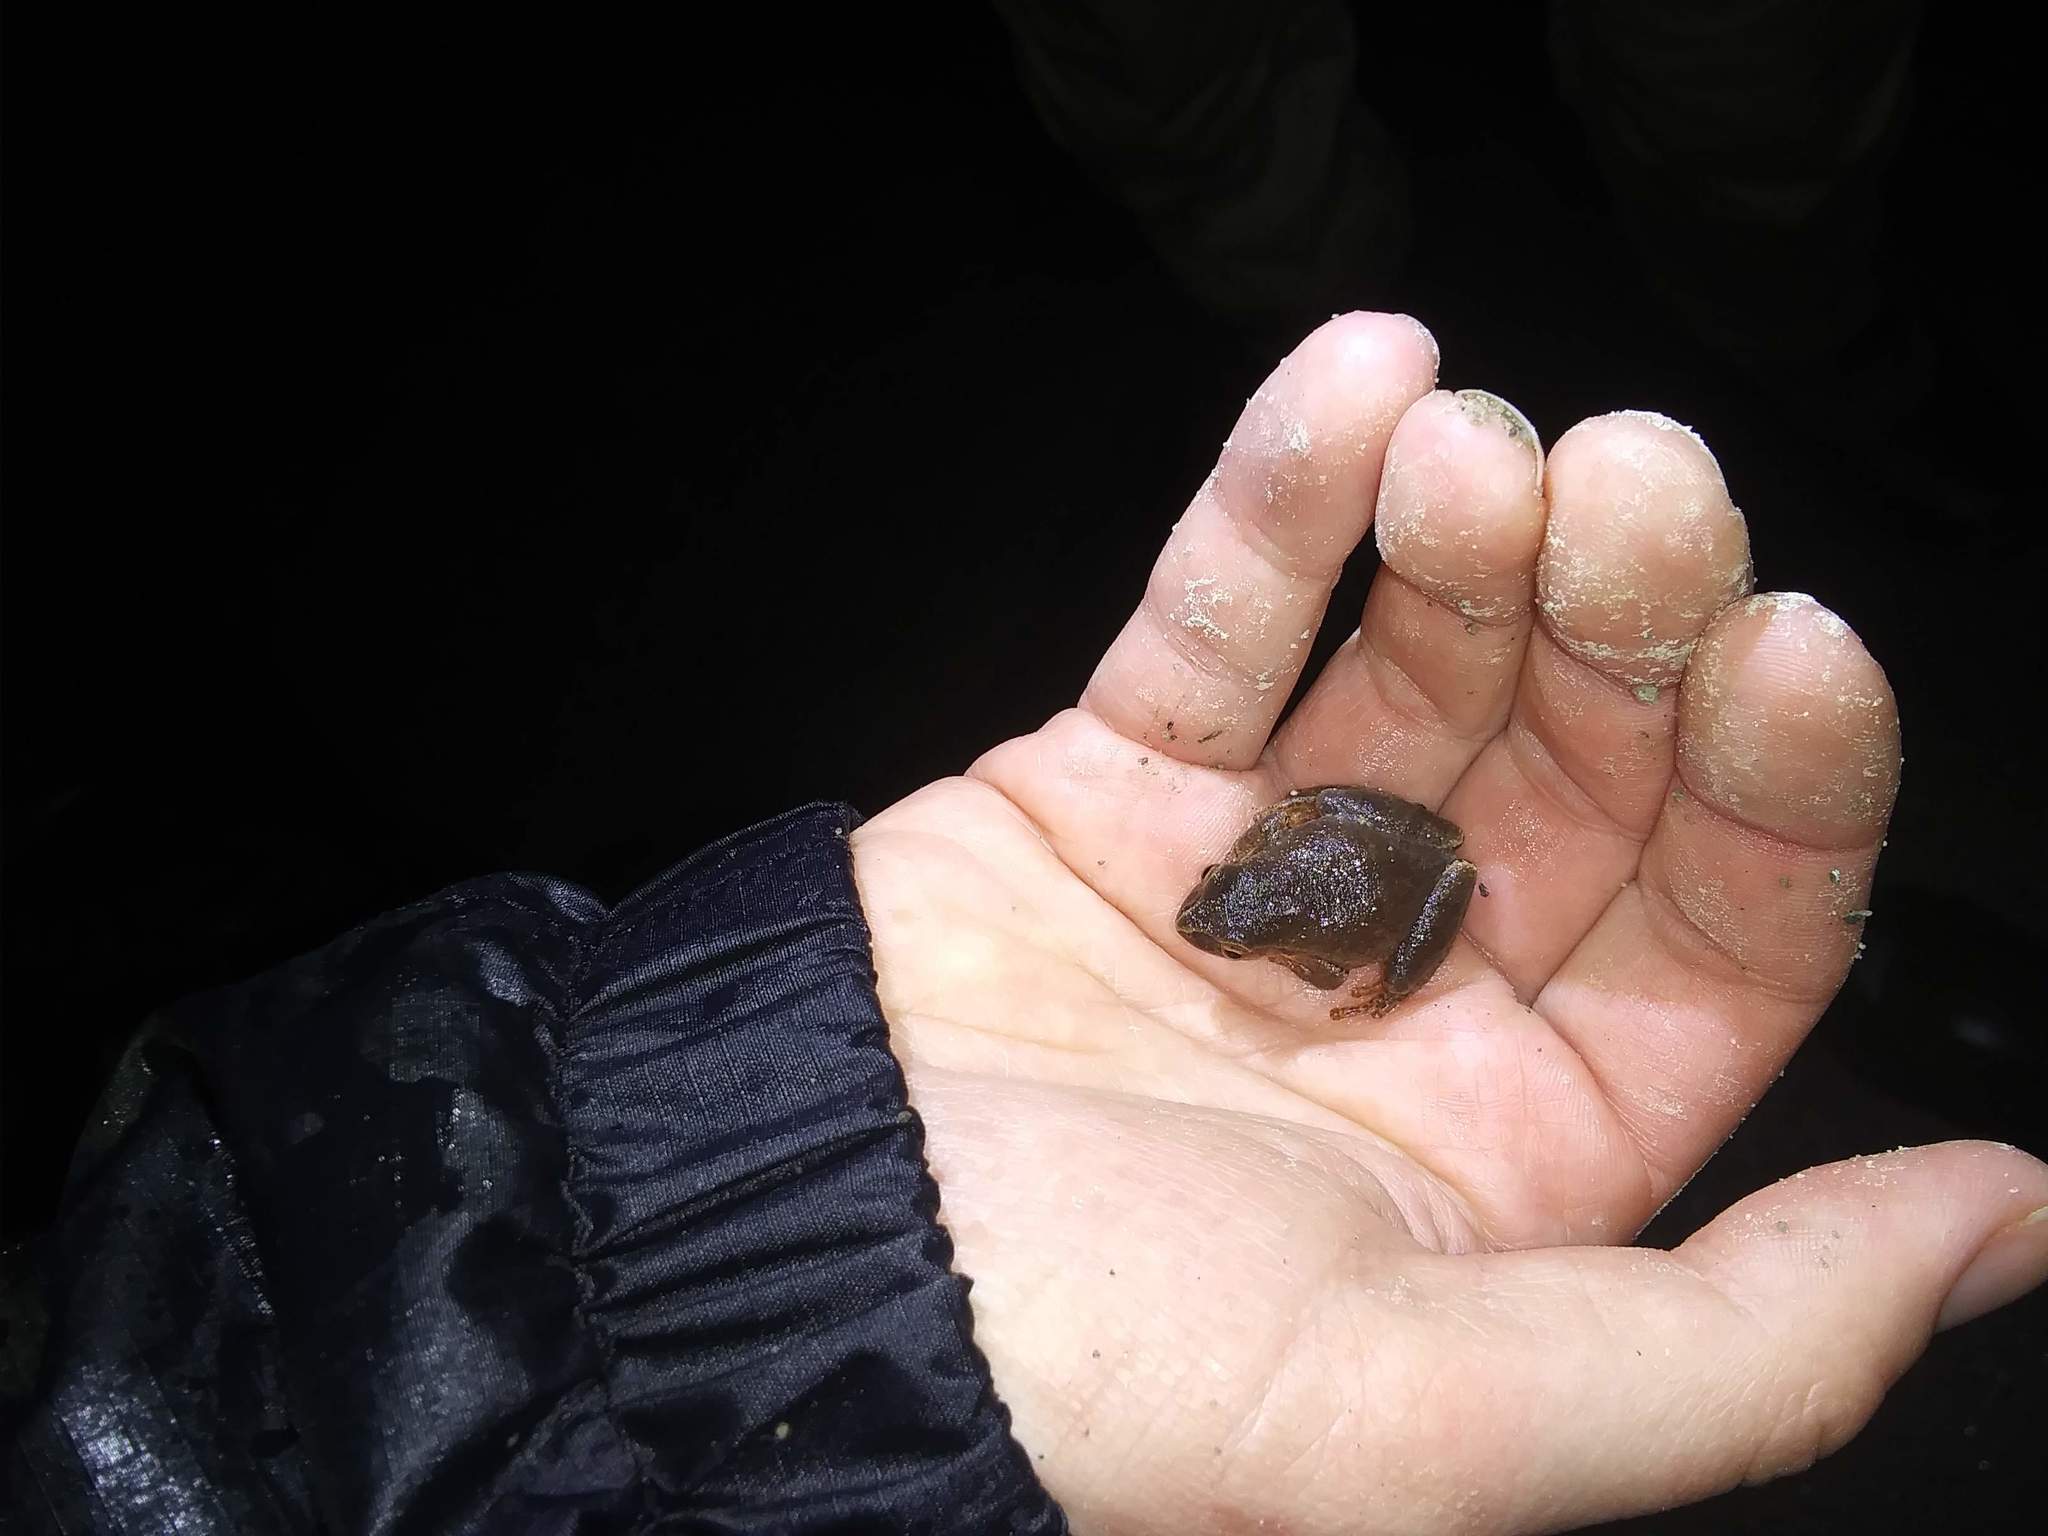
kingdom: Animalia
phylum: Chordata
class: Amphibia
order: Anura
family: Hylidae
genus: Pseudacris
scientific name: Pseudacris crucifer
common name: Spring peeper
